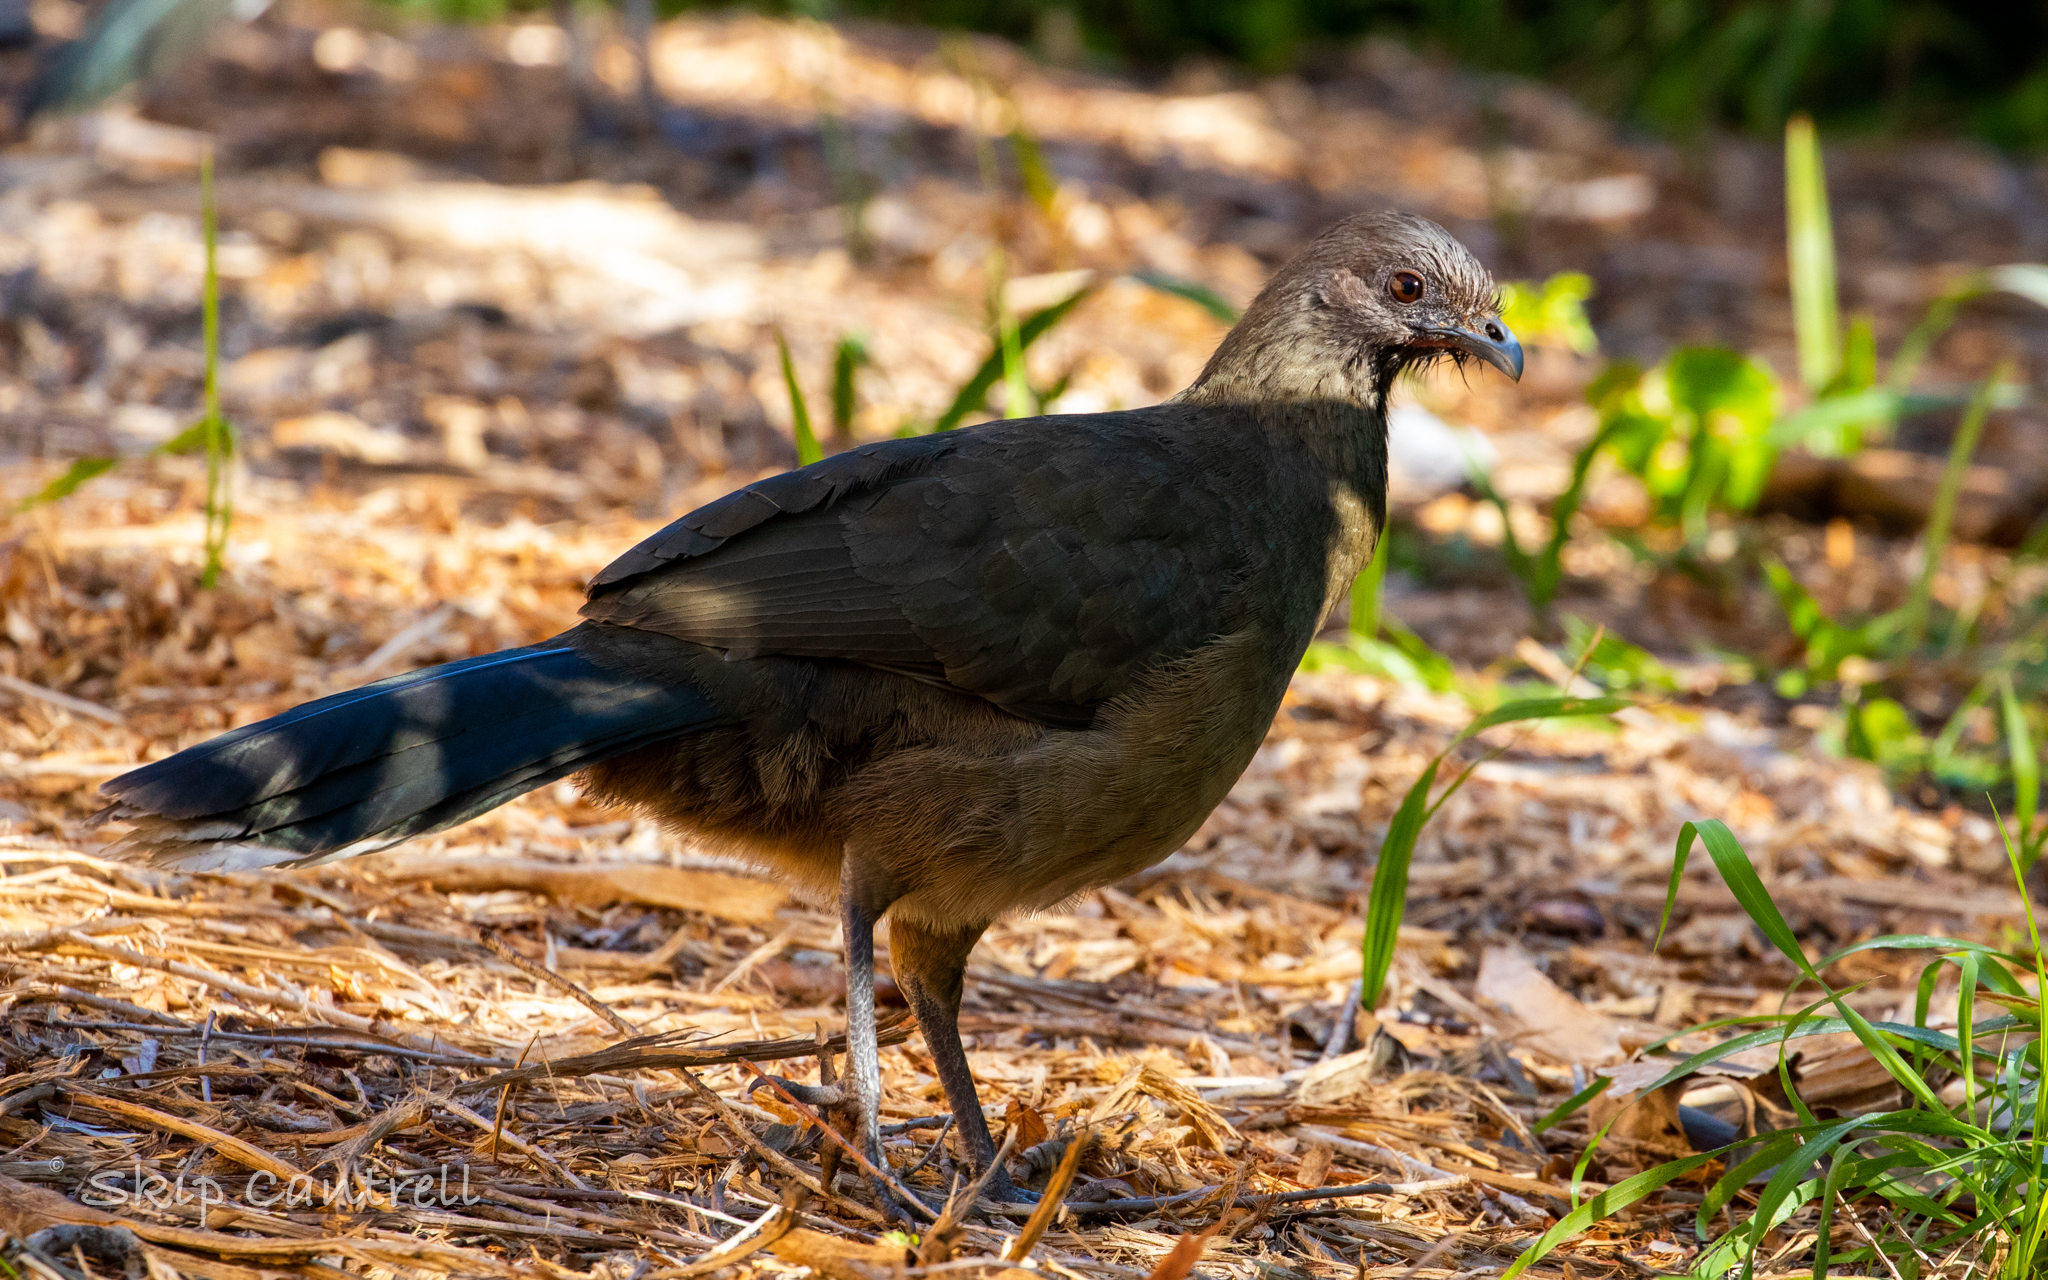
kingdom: Animalia
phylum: Chordata
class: Aves
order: Galliformes
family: Cracidae
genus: Ortalis
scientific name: Ortalis vetula
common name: Plain chachalaca
